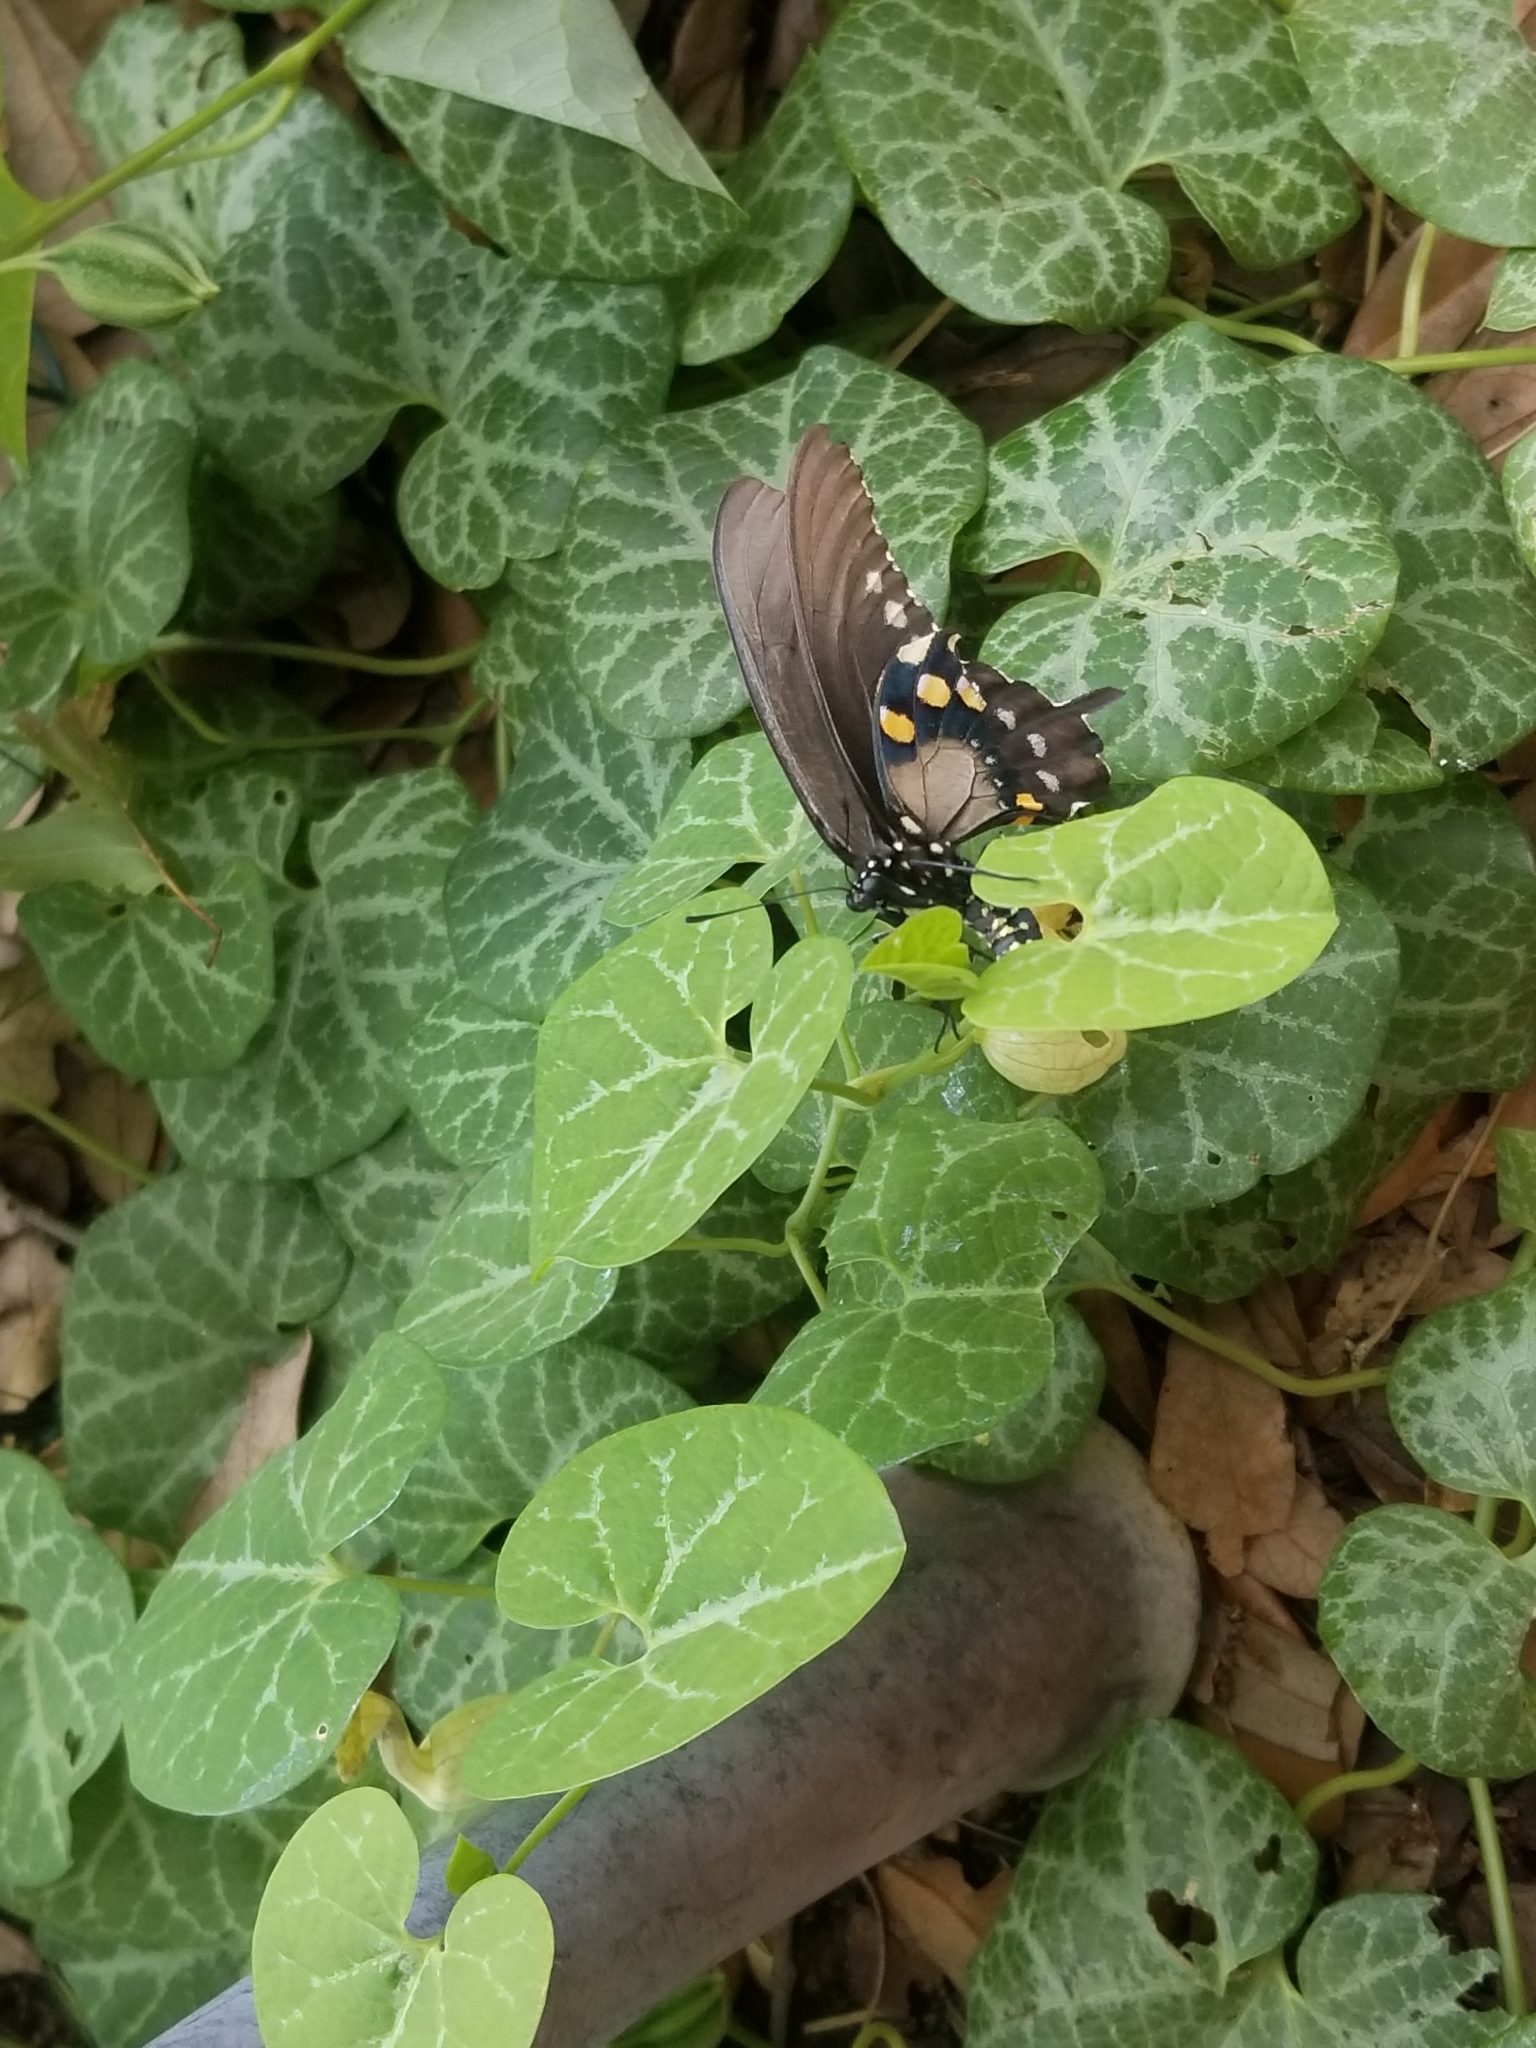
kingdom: Animalia
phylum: Arthropoda
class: Insecta
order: Lepidoptera
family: Papilionidae
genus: Battus
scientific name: Battus philenor
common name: Pipevine swallowtail
